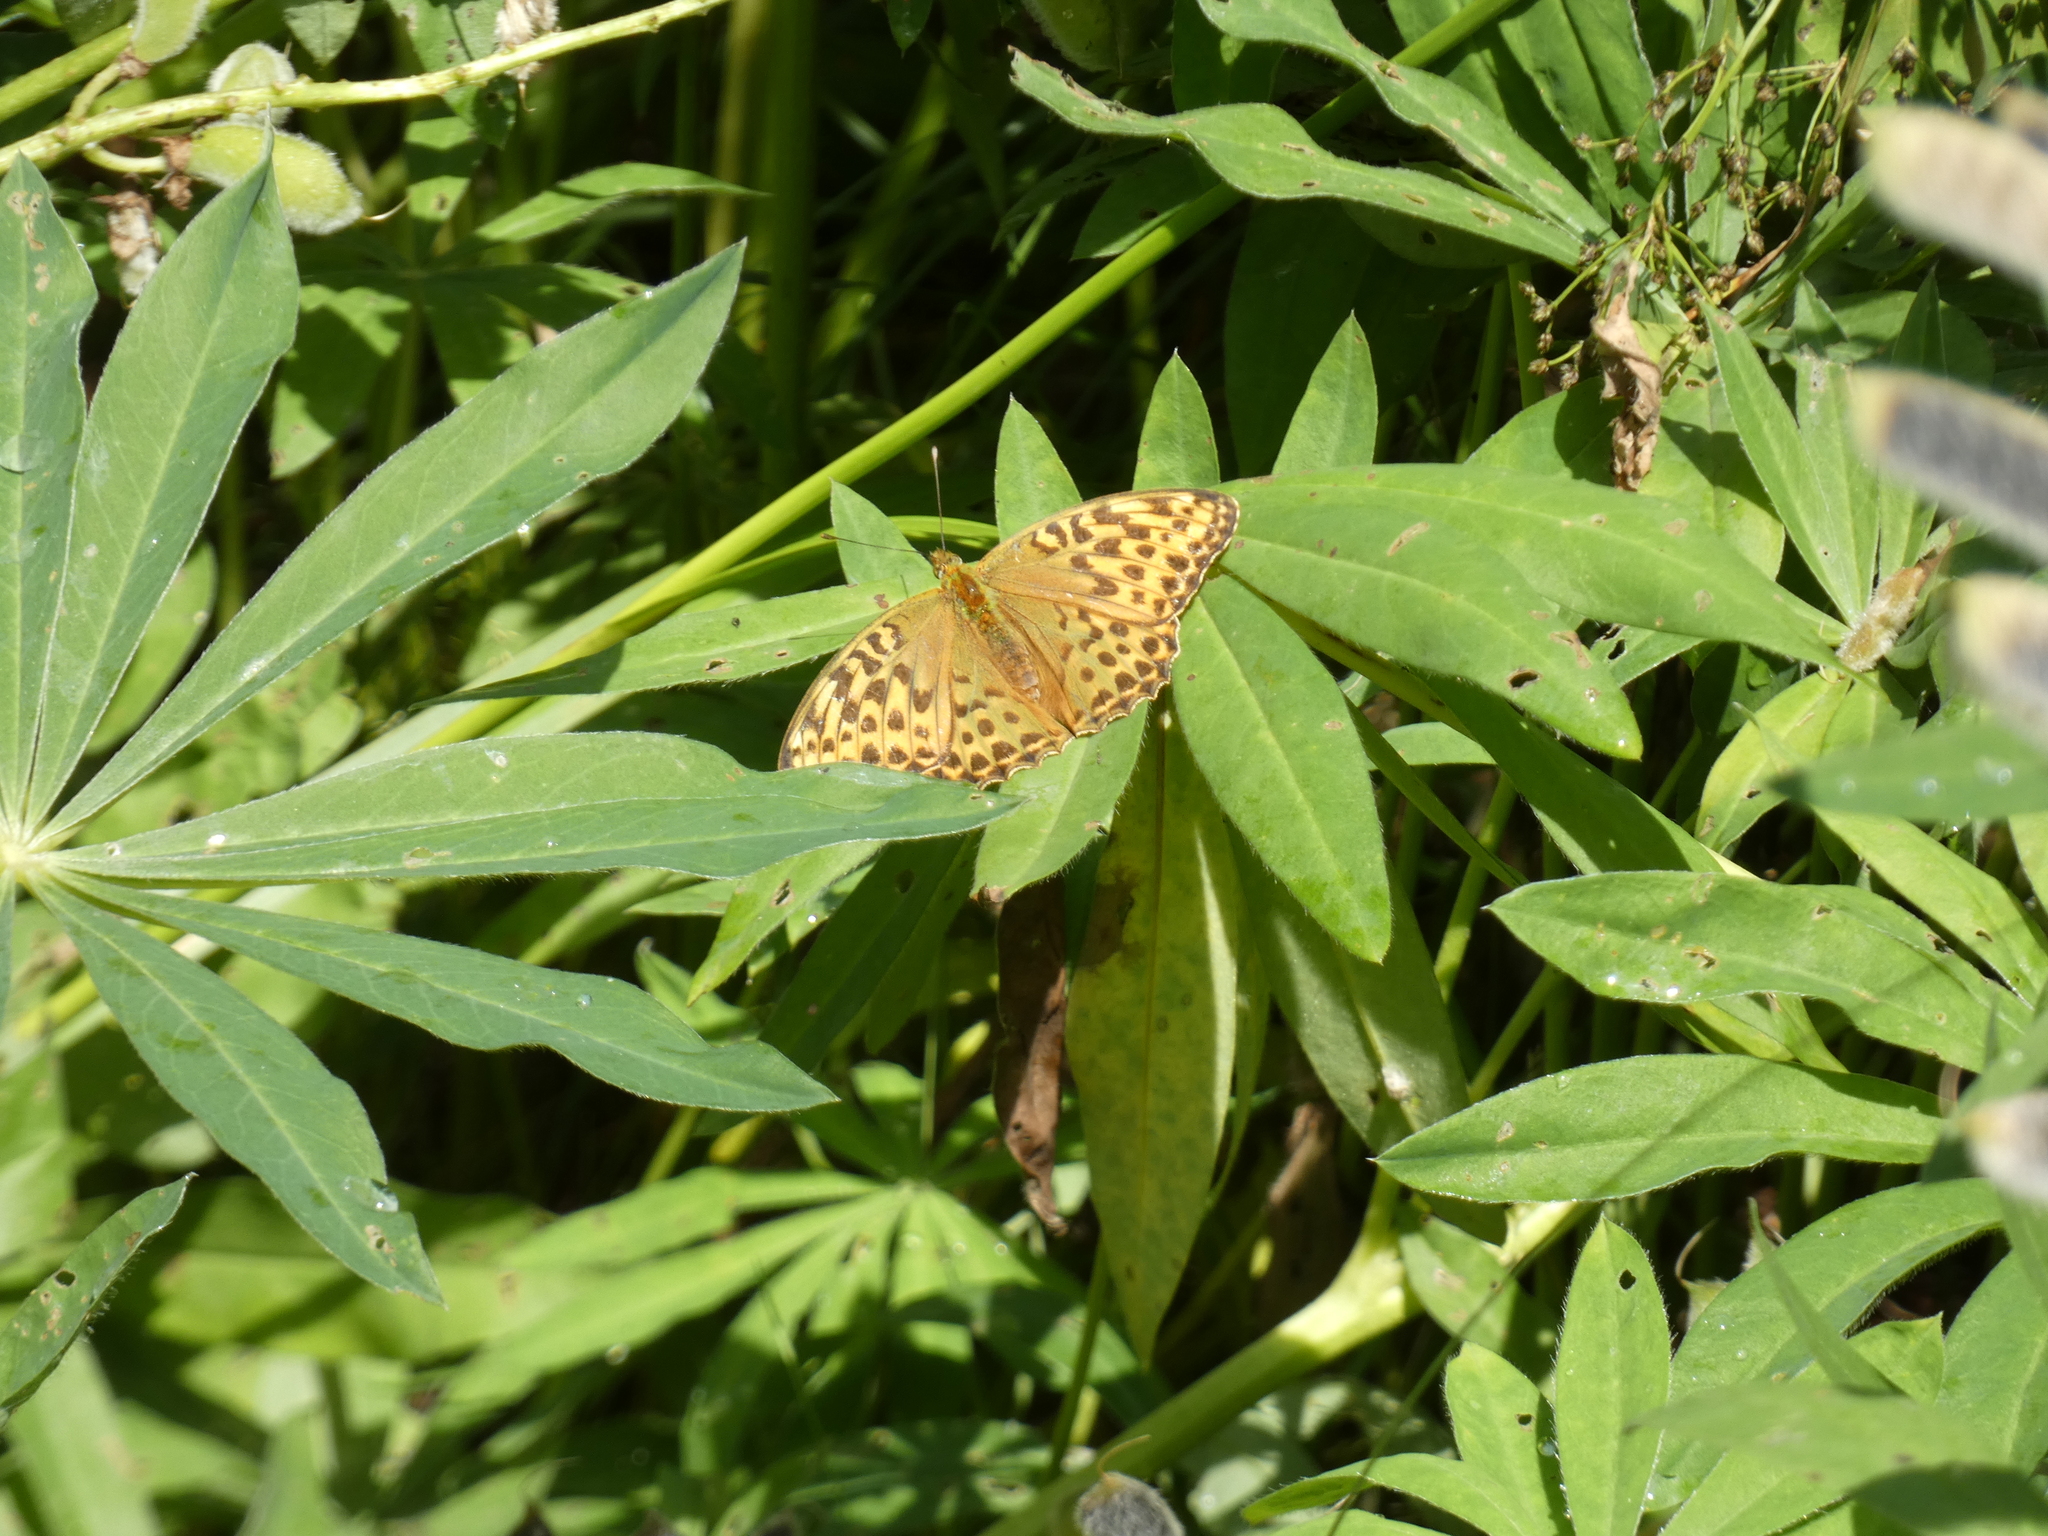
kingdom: Animalia
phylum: Arthropoda
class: Insecta
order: Lepidoptera
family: Nymphalidae
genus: Argynnis
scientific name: Argynnis paphia
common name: Silver-washed fritillary
